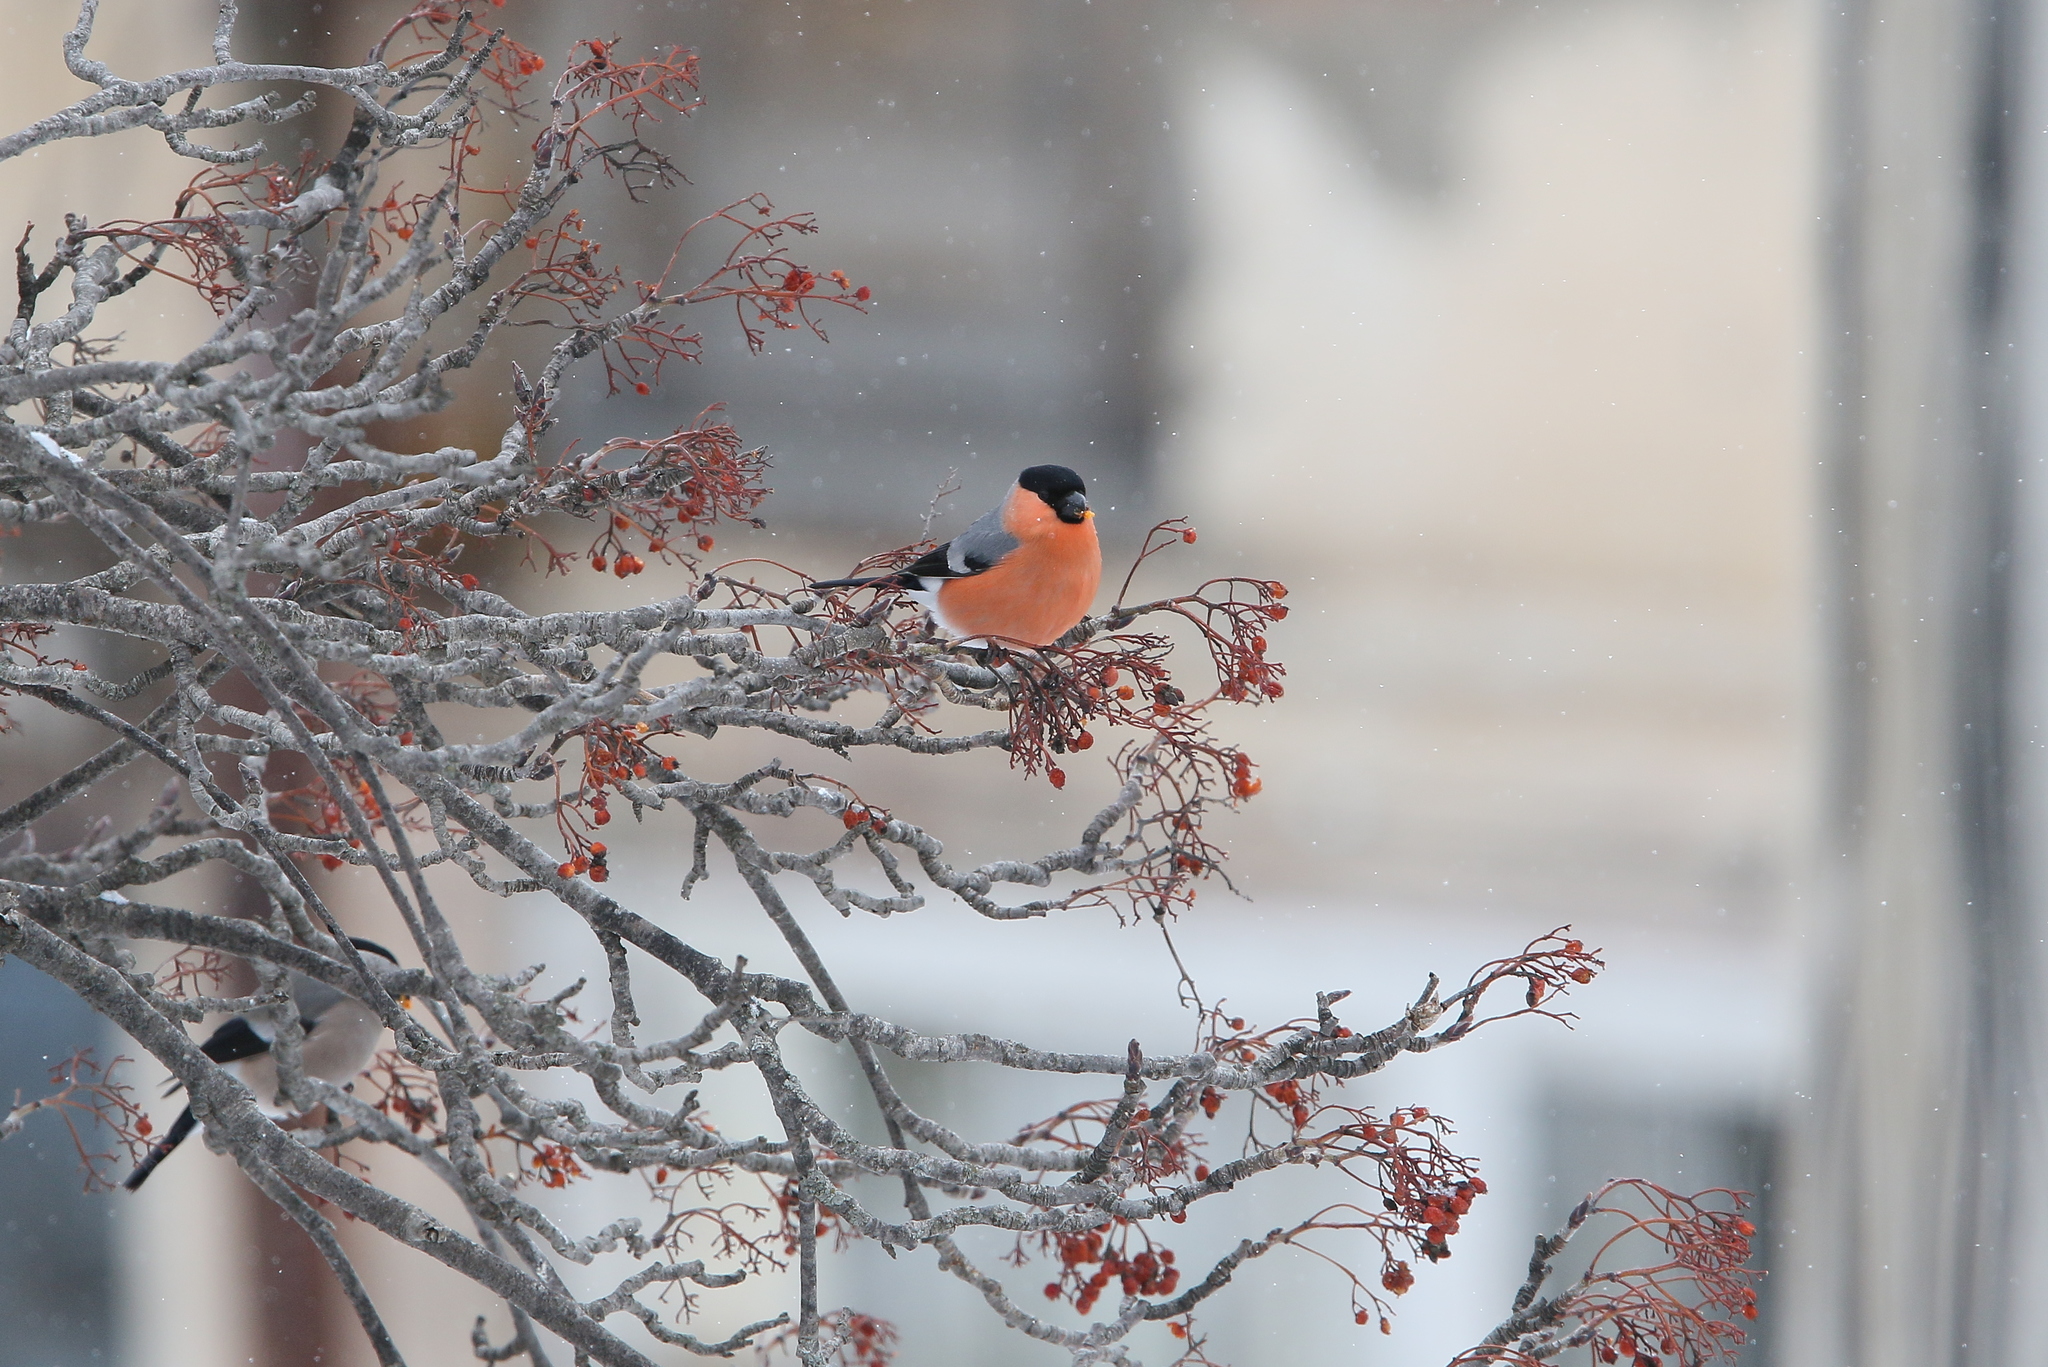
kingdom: Animalia
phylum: Chordata
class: Aves
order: Passeriformes
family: Fringillidae
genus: Pyrrhula
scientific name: Pyrrhula pyrrhula
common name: Eurasian bullfinch
